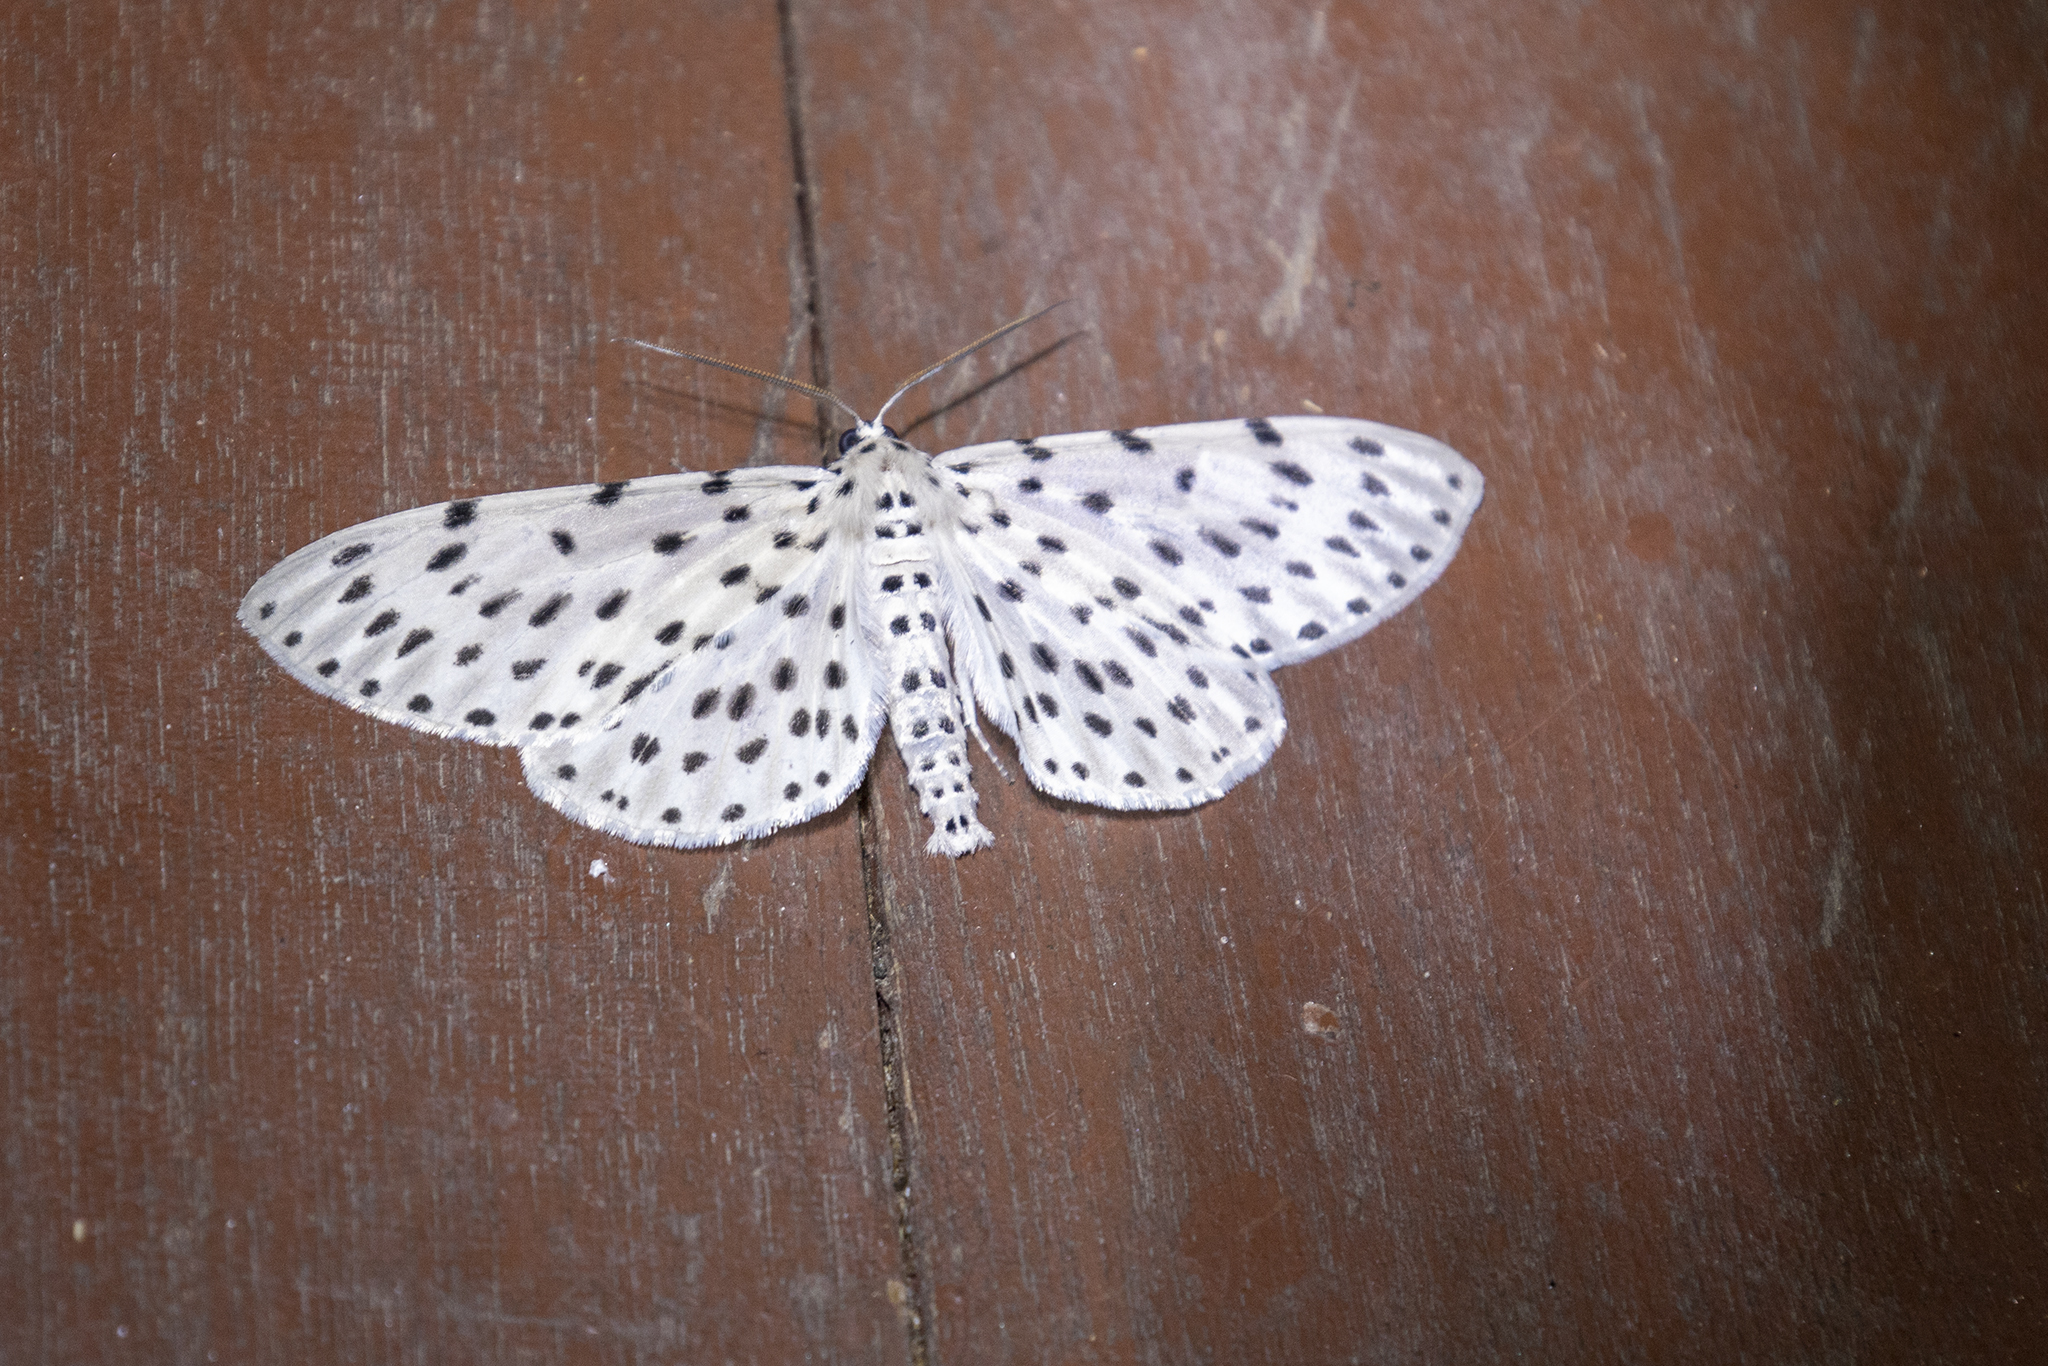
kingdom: Animalia
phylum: Arthropoda
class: Insecta
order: Lepidoptera
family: Geometridae
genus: Antipercnia
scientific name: Antipercnia belluaria
